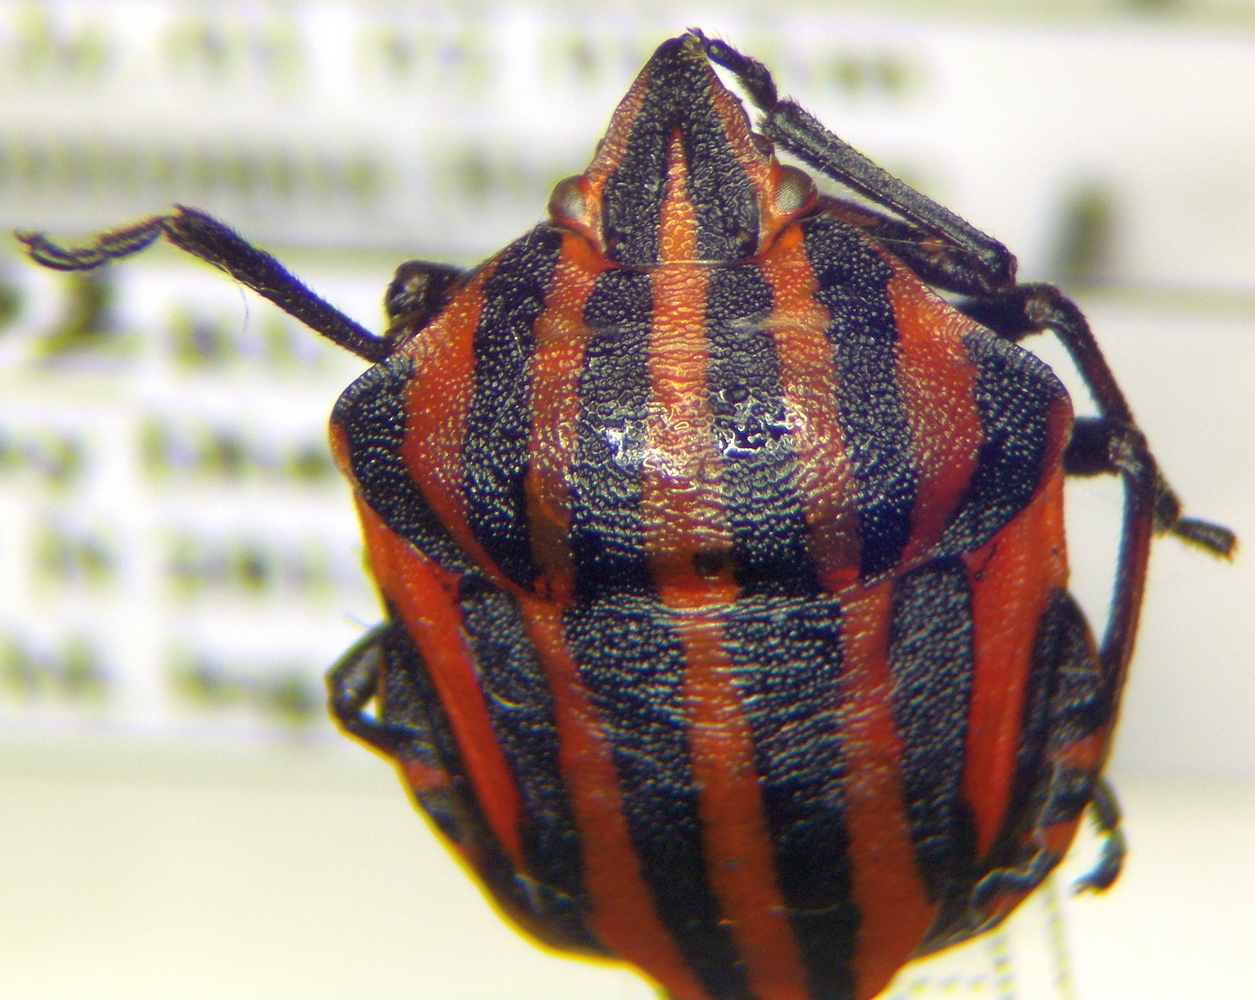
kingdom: Animalia
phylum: Arthropoda
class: Insecta
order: Hemiptera
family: Pentatomidae
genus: Graphosoma
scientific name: Graphosoma italicum
